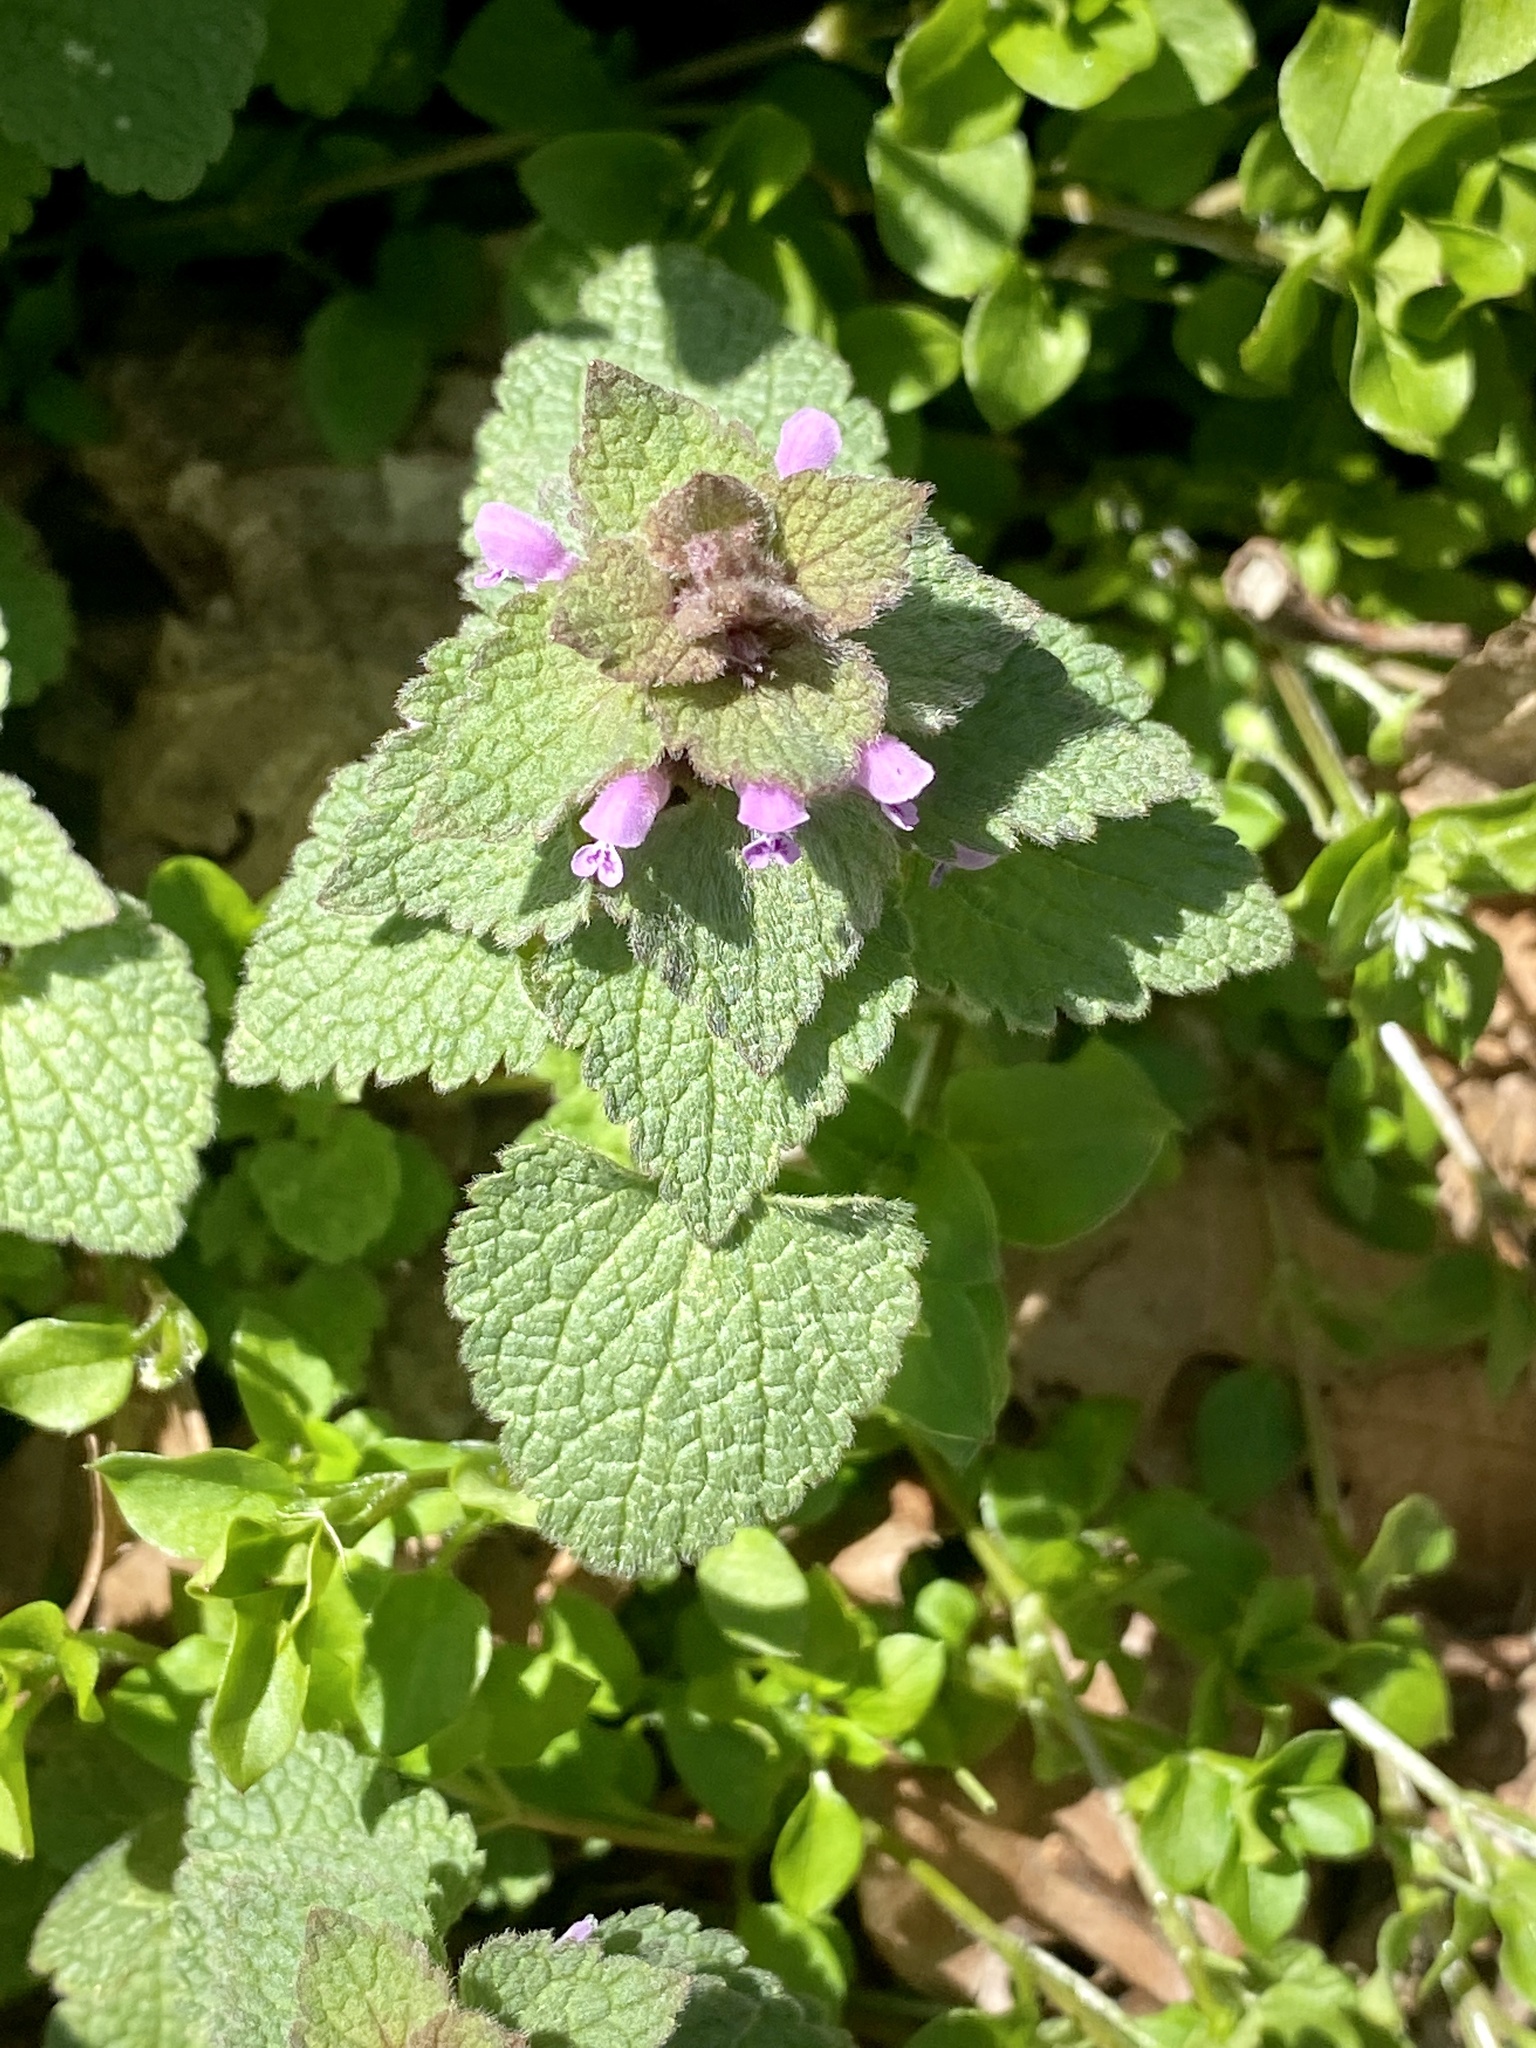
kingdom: Plantae
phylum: Tracheophyta
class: Magnoliopsida
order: Lamiales
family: Lamiaceae
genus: Lamium
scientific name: Lamium purpureum
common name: Red dead-nettle
